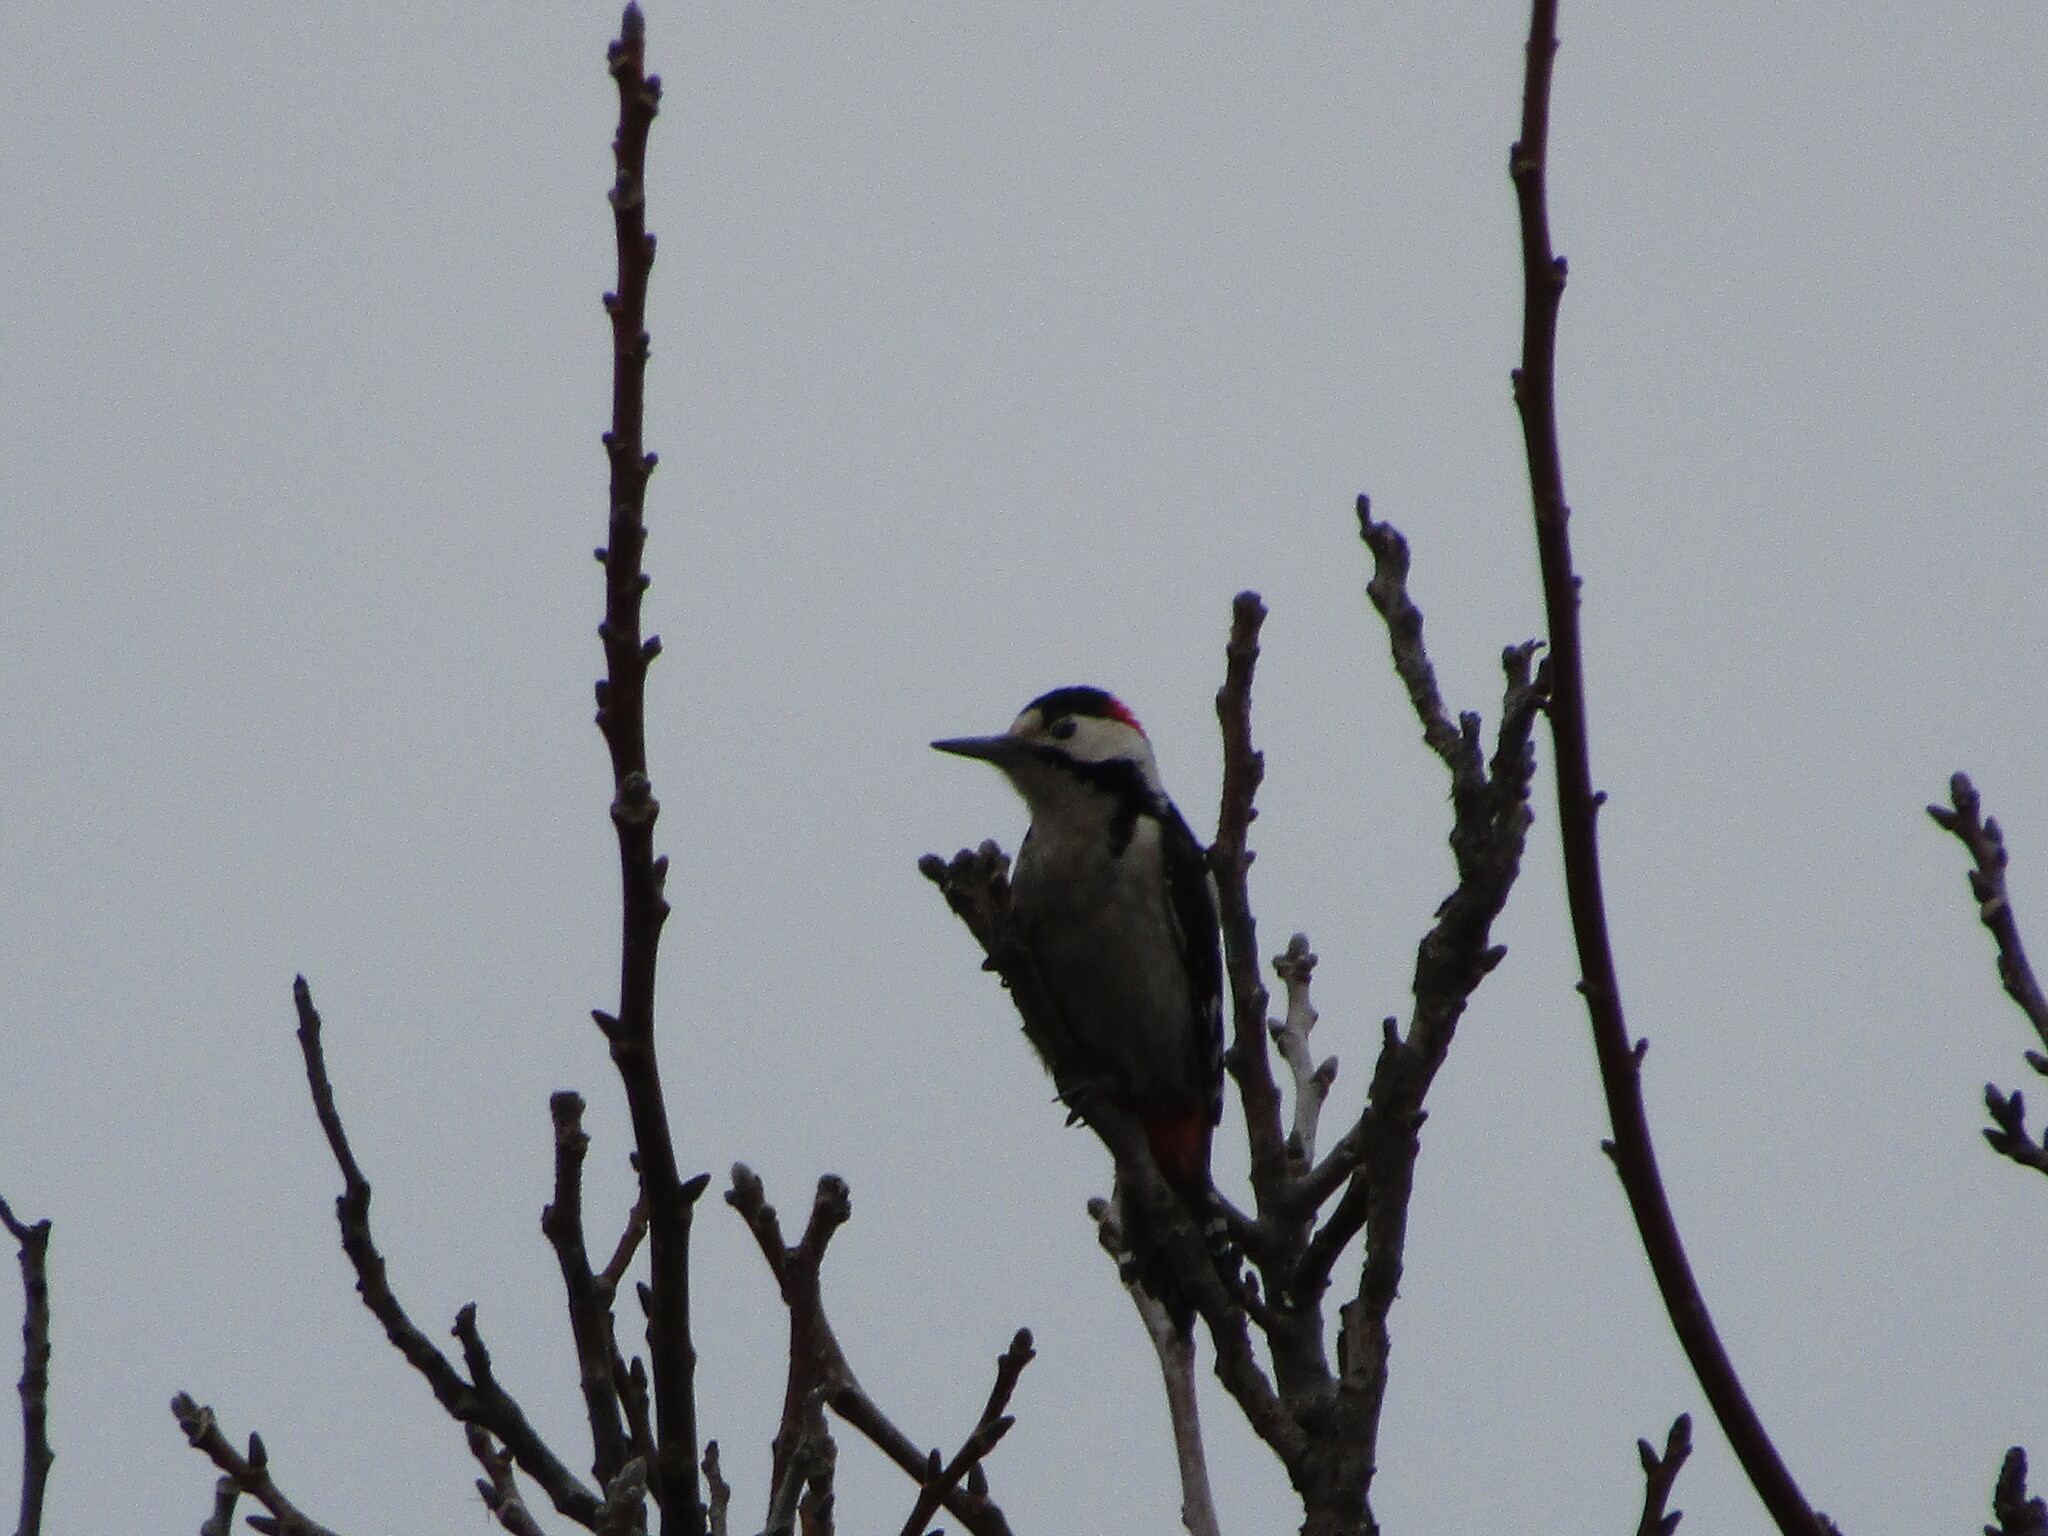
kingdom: Animalia
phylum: Chordata
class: Aves
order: Piciformes
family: Picidae
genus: Dendrocopos
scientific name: Dendrocopos syriacus
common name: Syrian woodpecker
